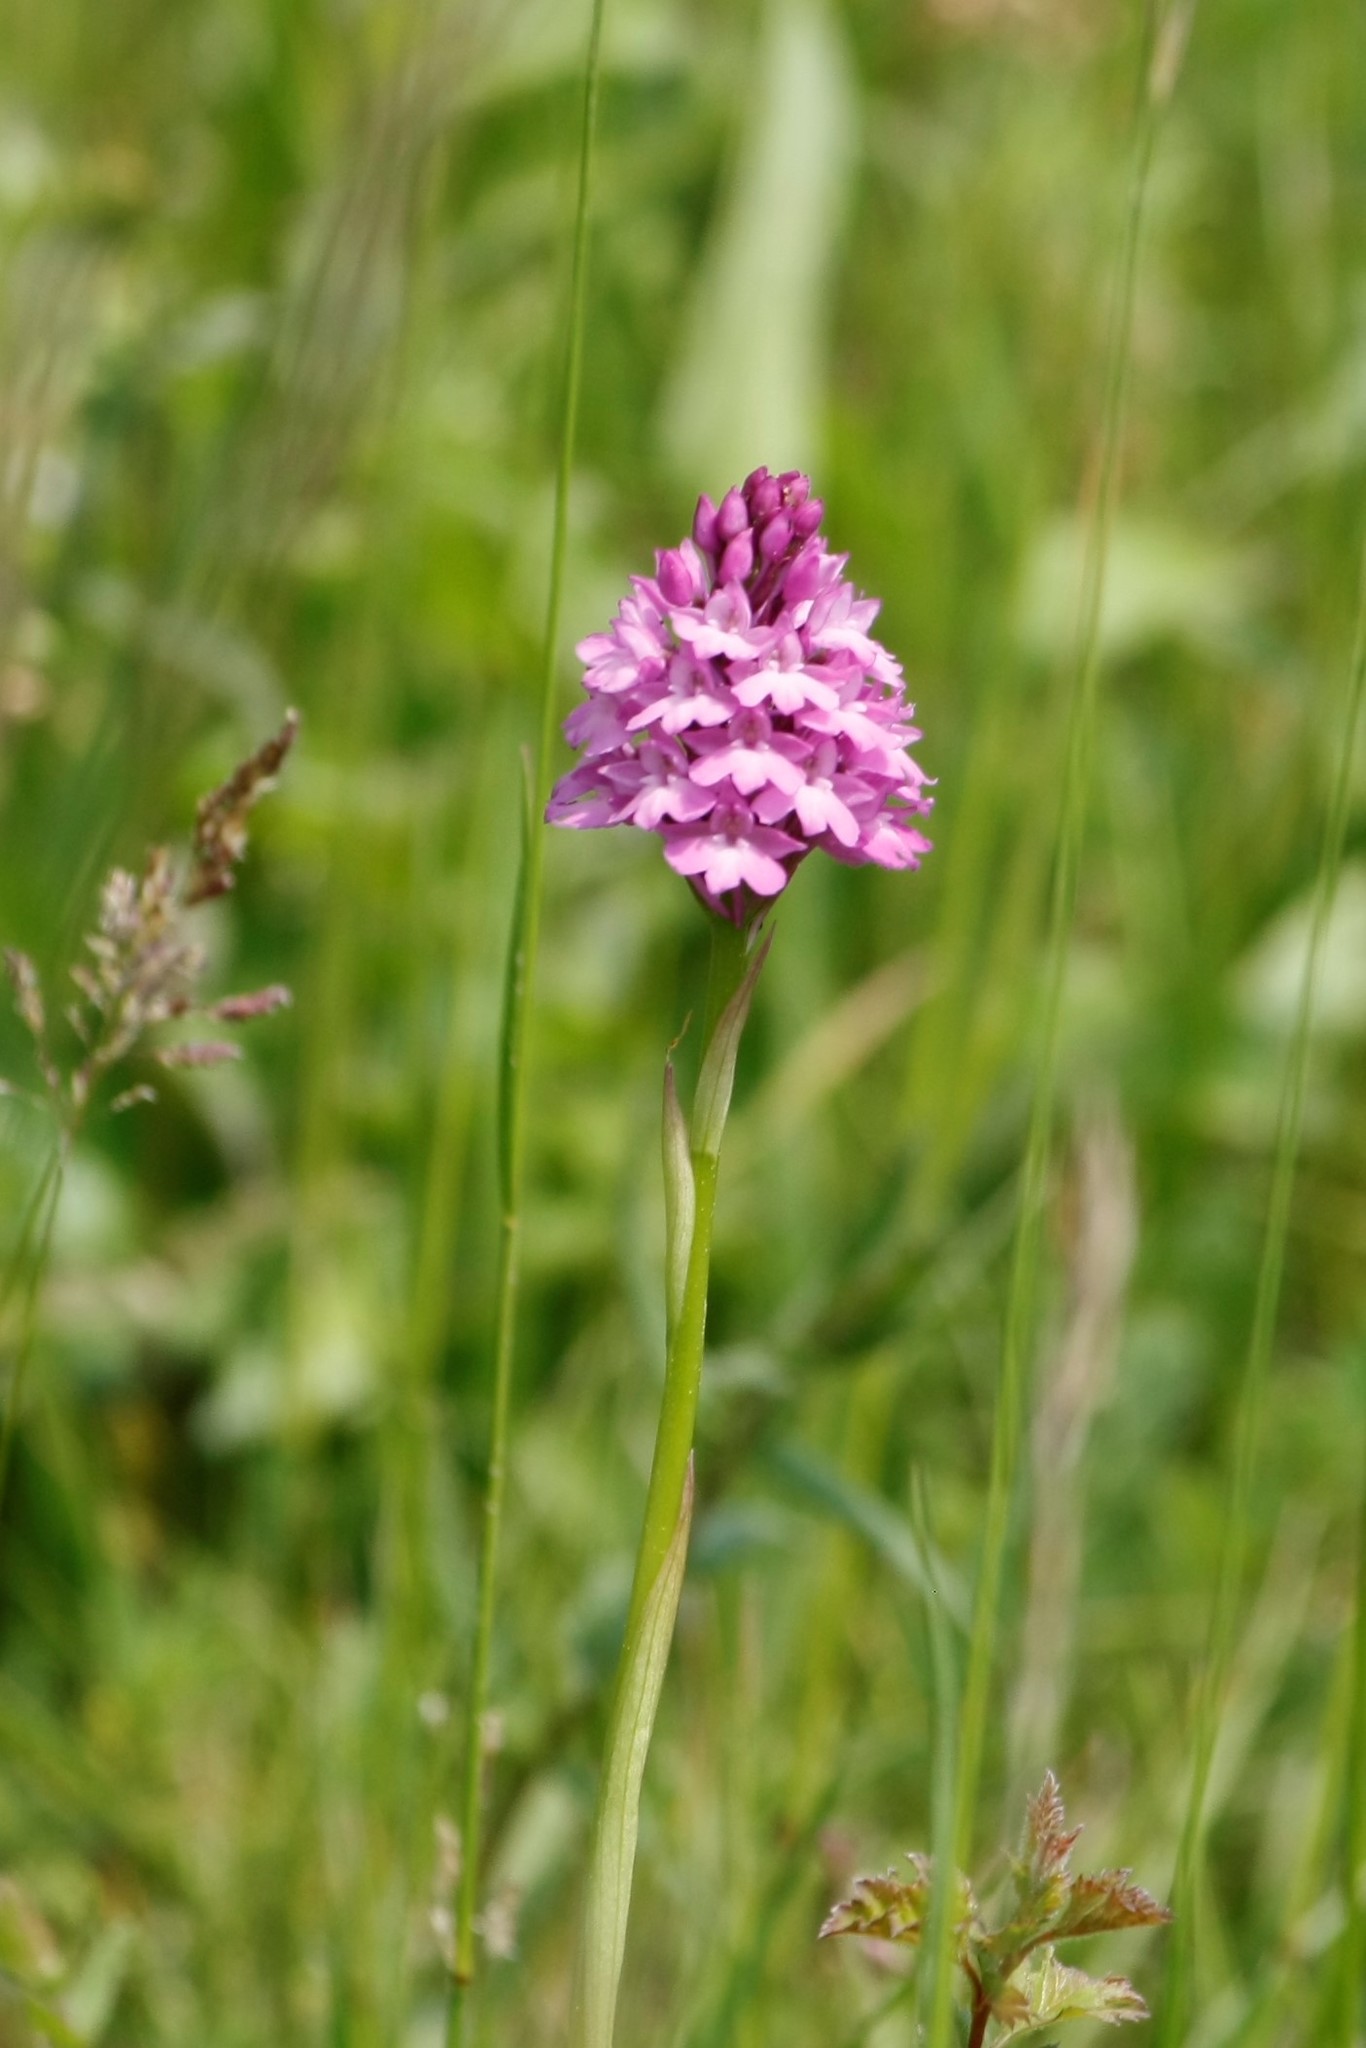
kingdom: Plantae
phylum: Tracheophyta
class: Liliopsida
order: Asparagales
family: Orchidaceae
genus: Anacamptis
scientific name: Anacamptis pyramidalis
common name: Pyramidal orchid
